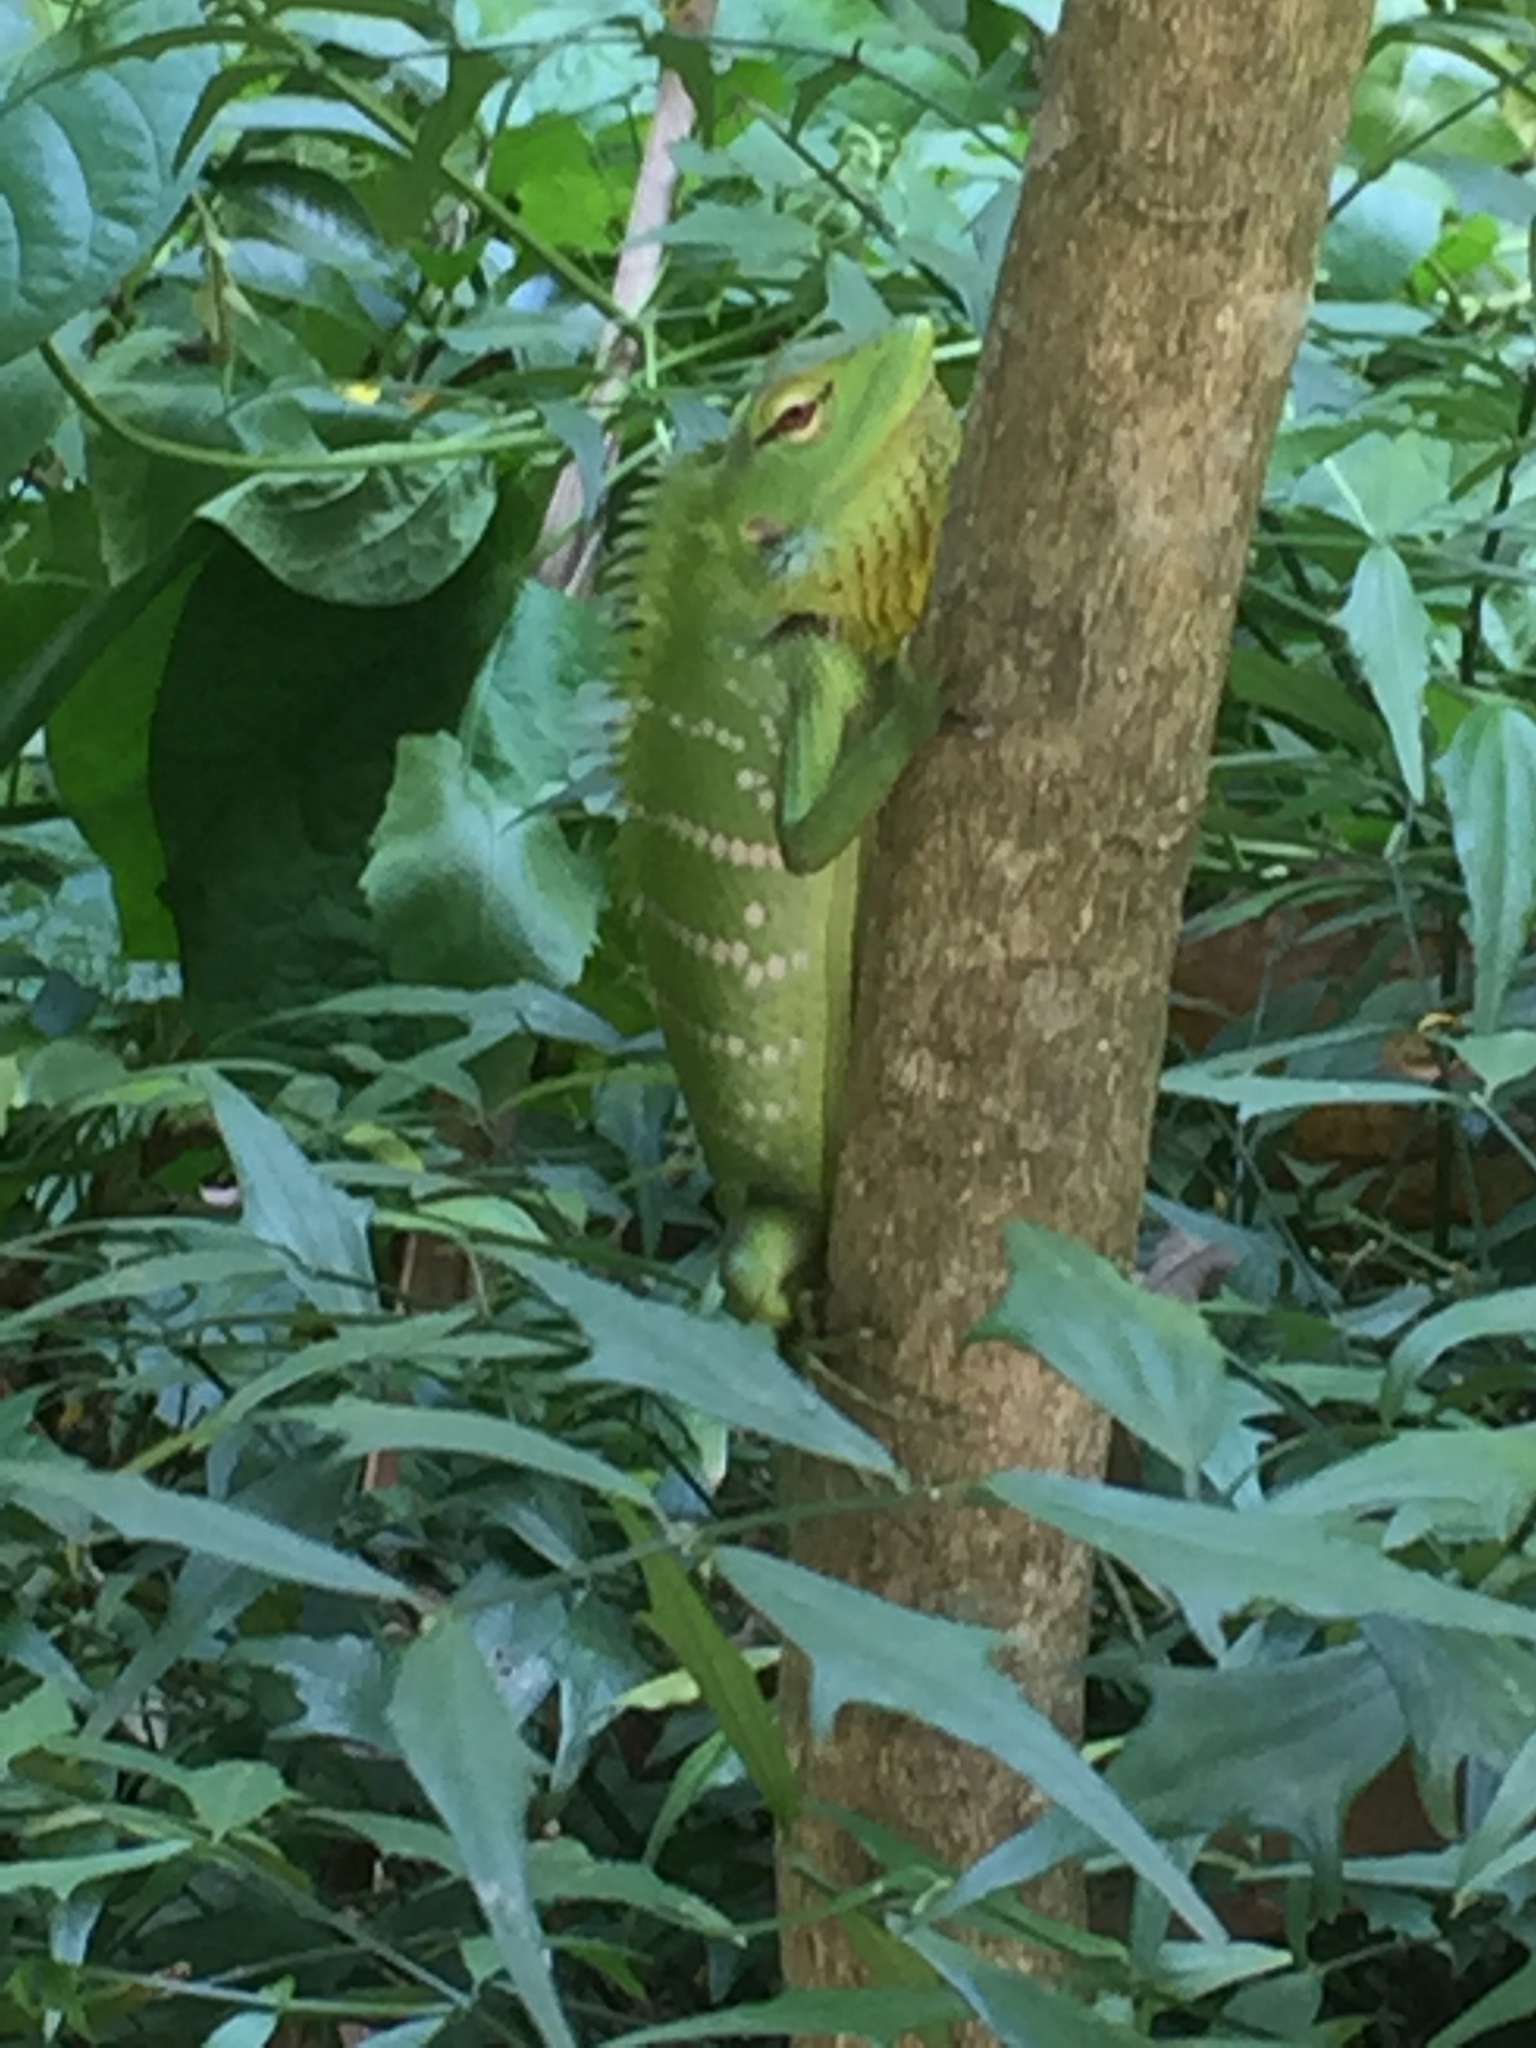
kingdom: Animalia
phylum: Chordata
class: Squamata
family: Agamidae
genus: Calotes
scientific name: Calotes calotes
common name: Common green forest lizard
